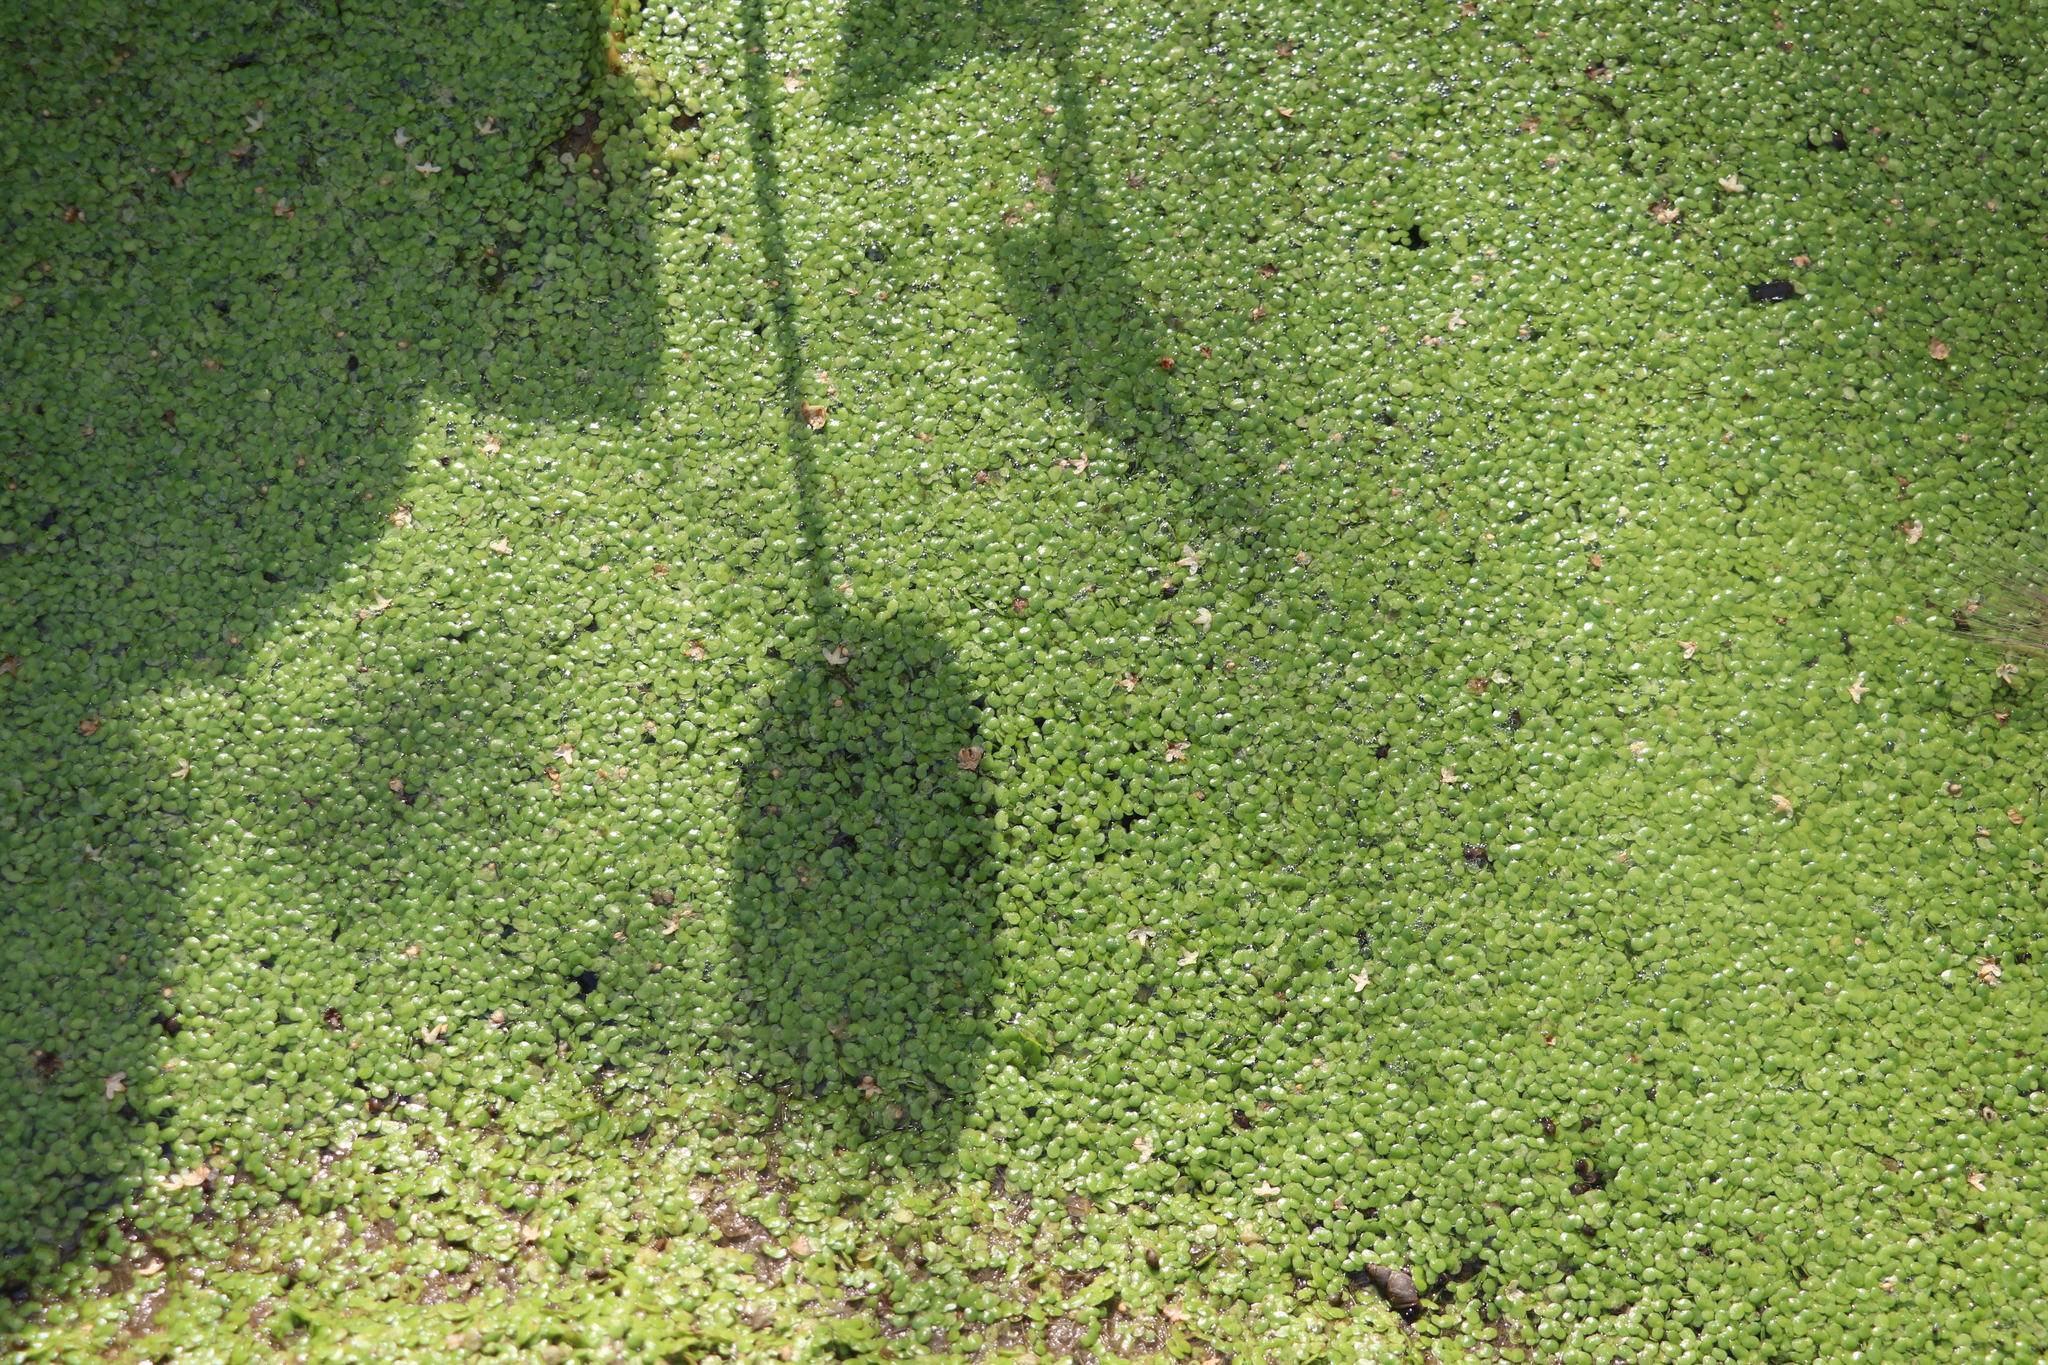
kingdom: Plantae
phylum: Tracheophyta
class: Liliopsida
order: Alismatales
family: Araceae
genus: Lemna
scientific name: Lemna minor
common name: Common duckweed
